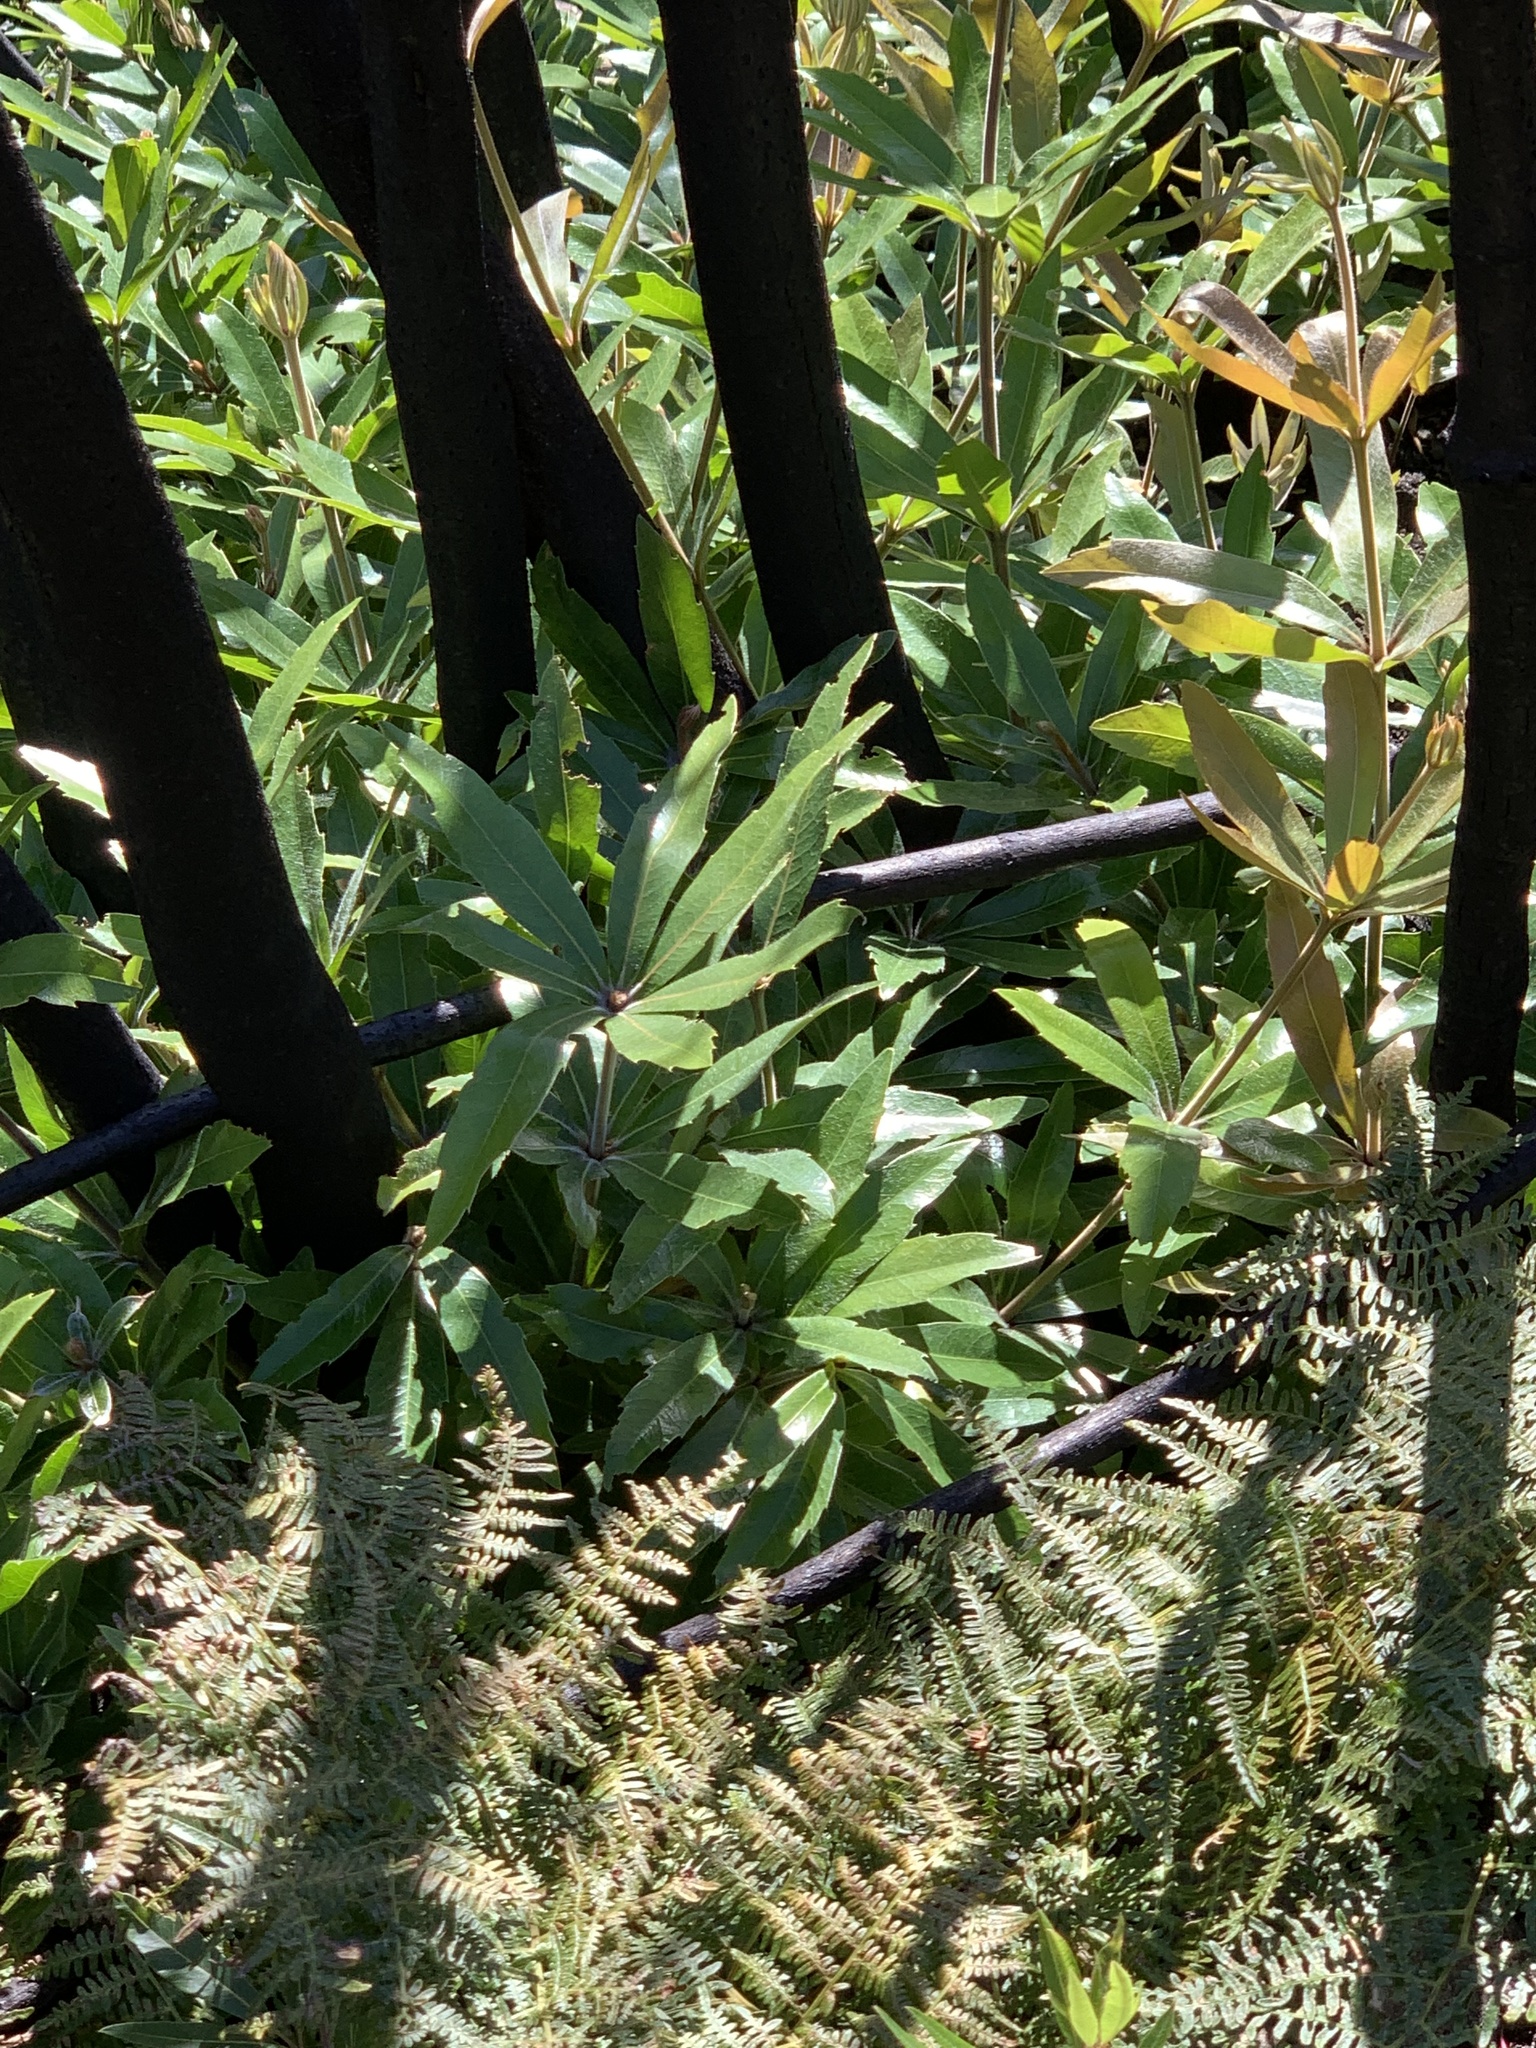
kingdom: Plantae
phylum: Tracheophyta
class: Magnoliopsida
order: Proteales
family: Proteaceae
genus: Brabejum
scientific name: Brabejum stellatifolium
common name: Wild almond
